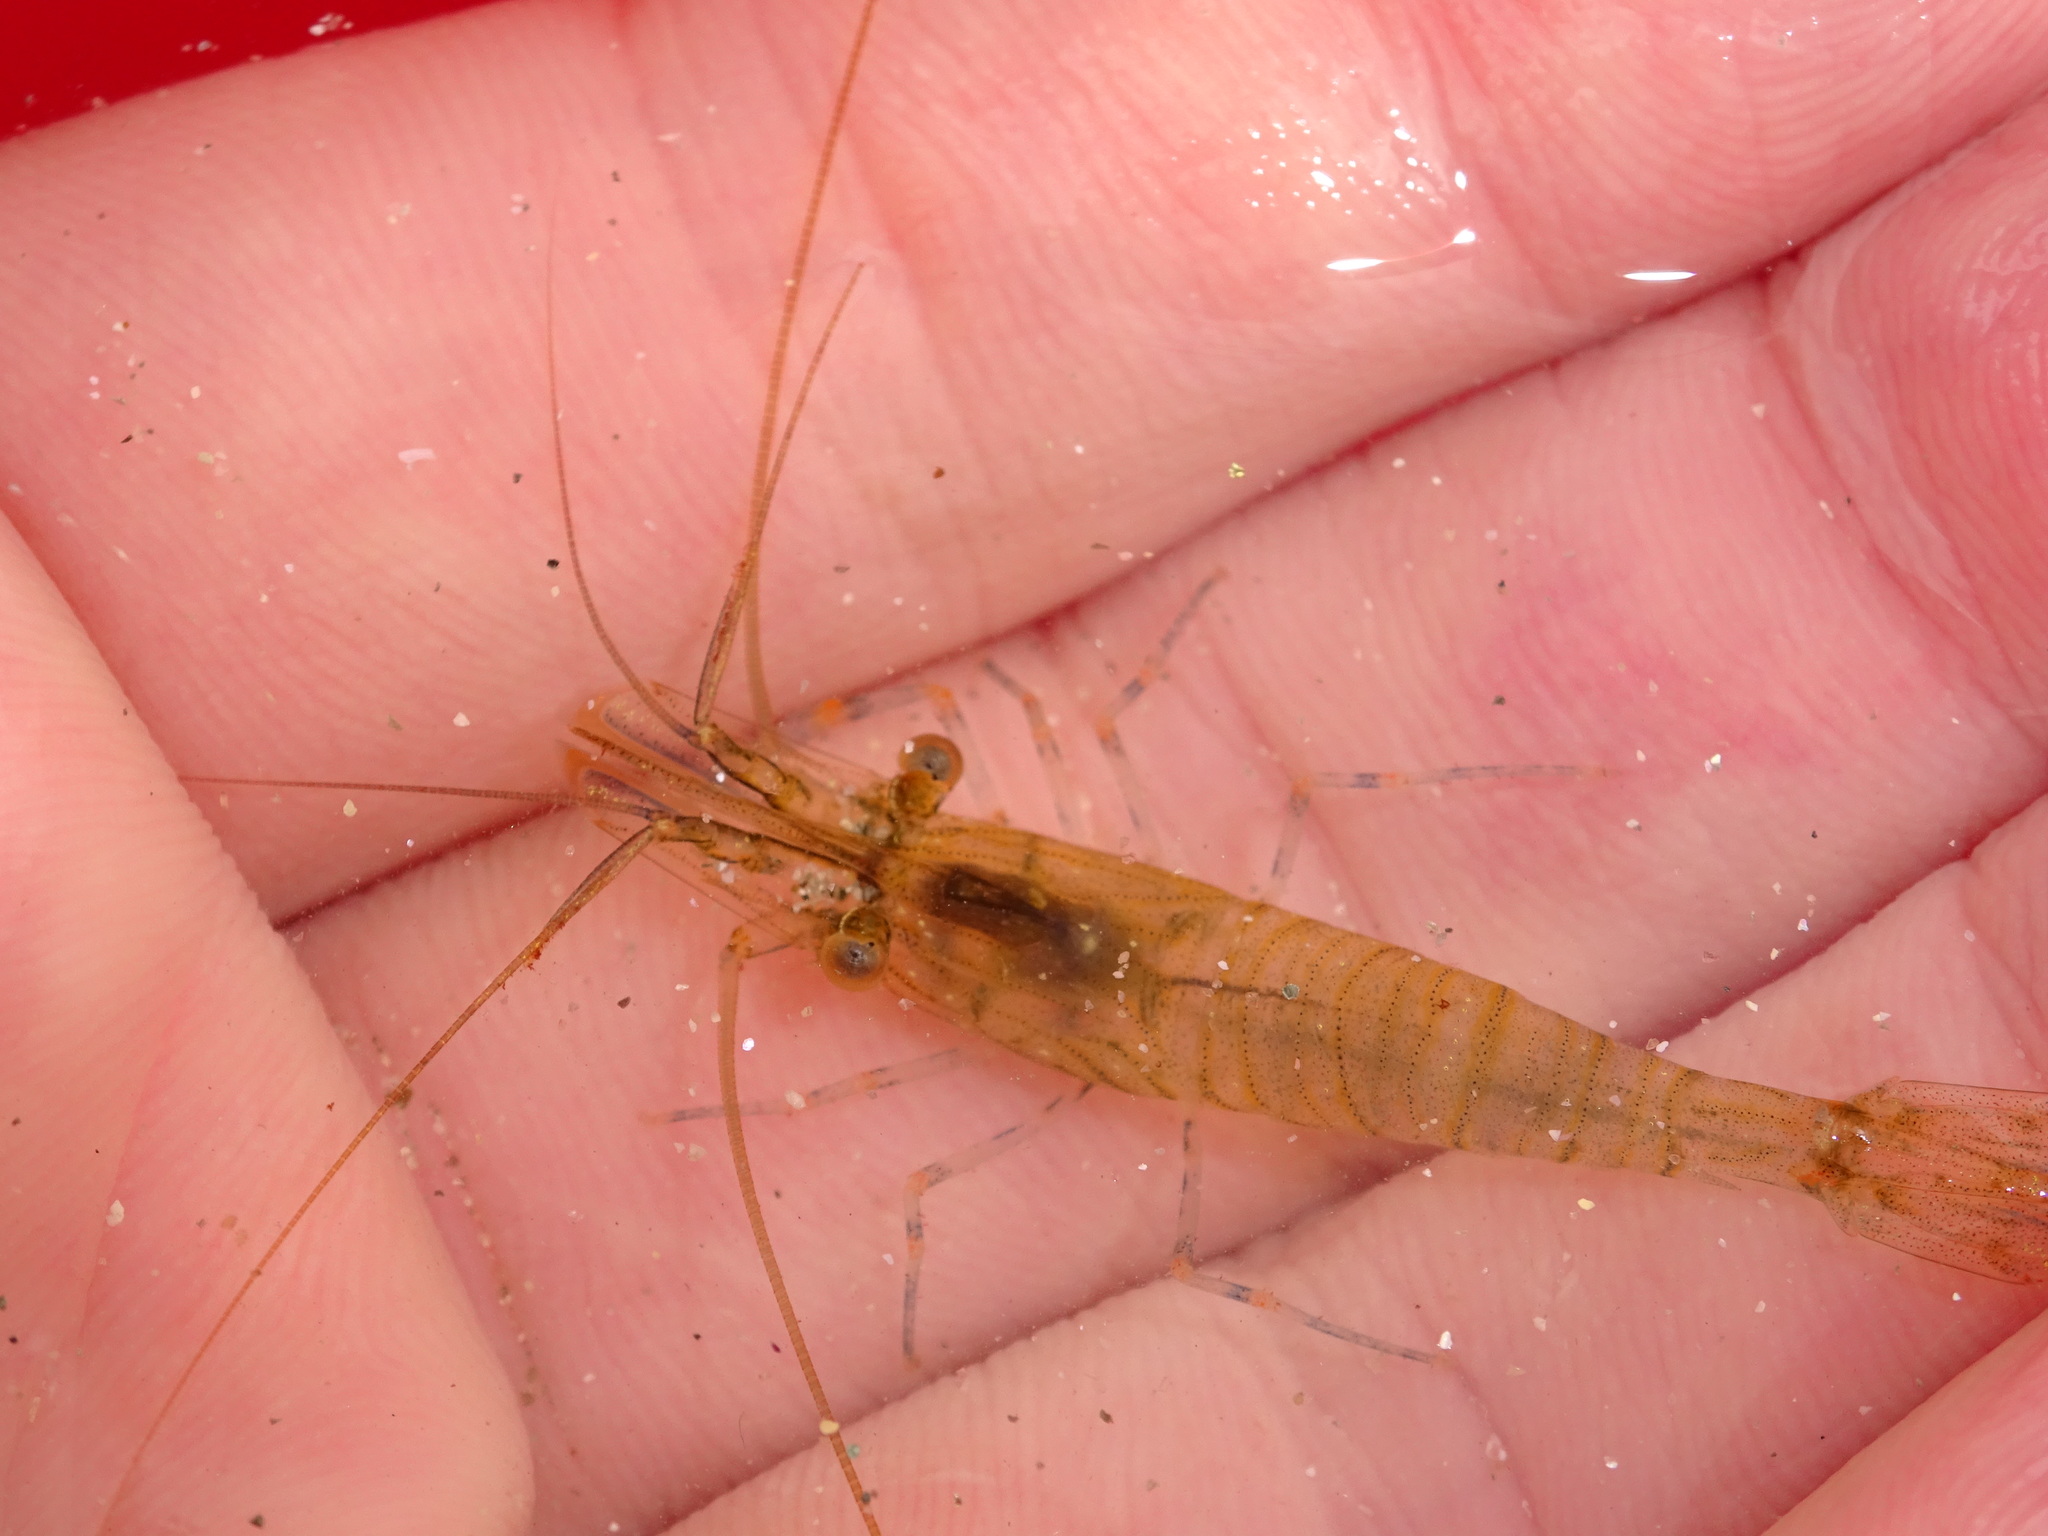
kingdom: Animalia
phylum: Arthropoda
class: Malacostraca
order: Decapoda
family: Palaemonidae
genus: Palaemon
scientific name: Palaemon elegans
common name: Grass prawm
